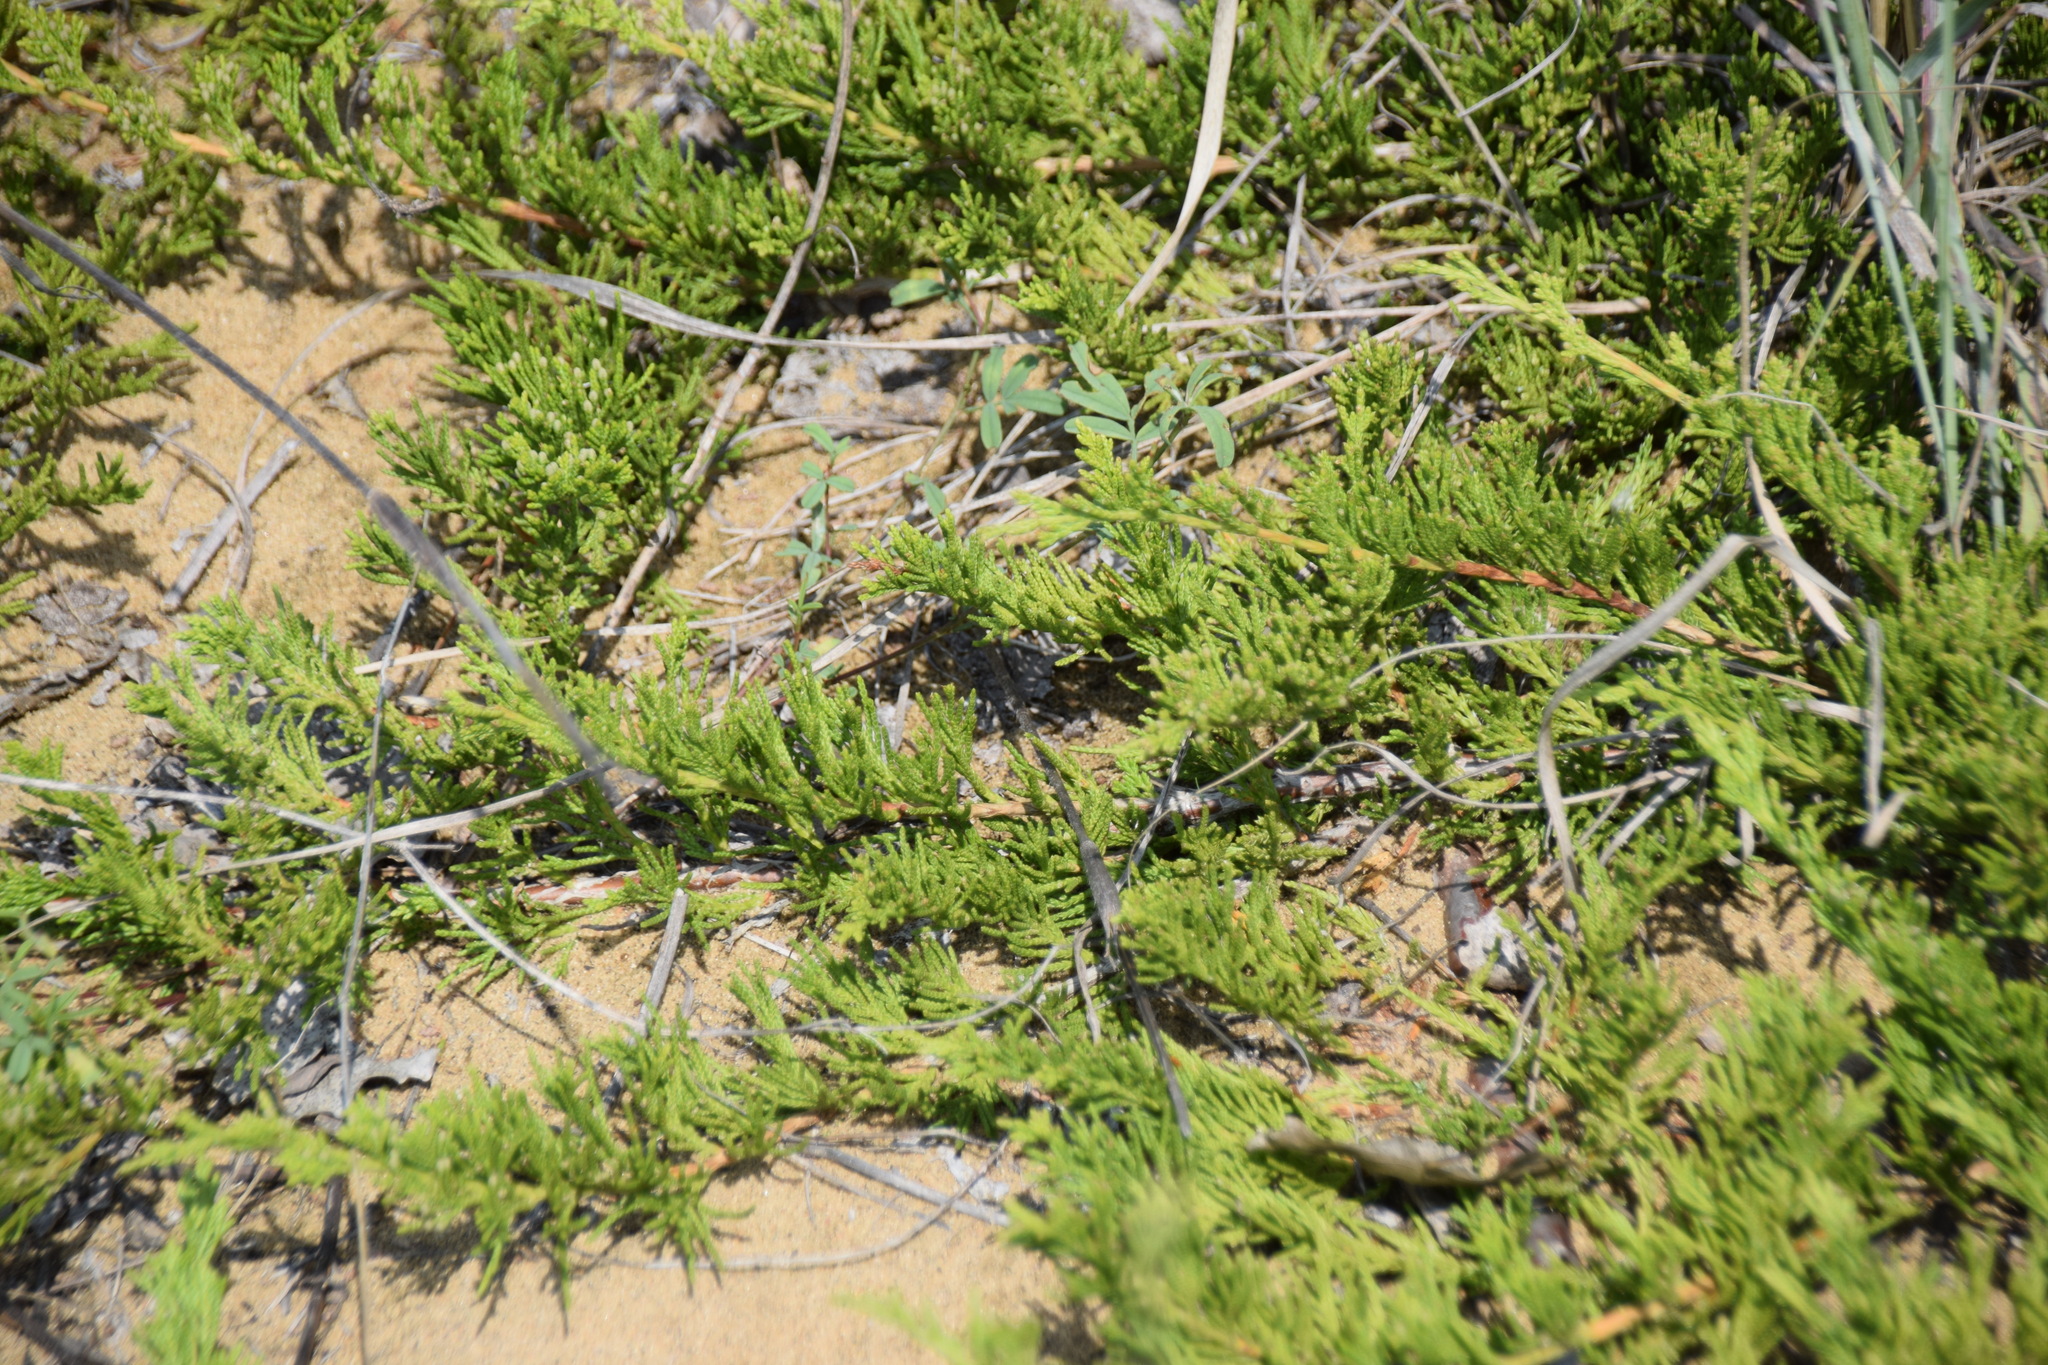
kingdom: Plantae
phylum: Tracheophyta
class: Pinopsida
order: Pinales
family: Cupressaceae
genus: Juniperus
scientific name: Juniperus horizontalis
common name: Creeping juniper
